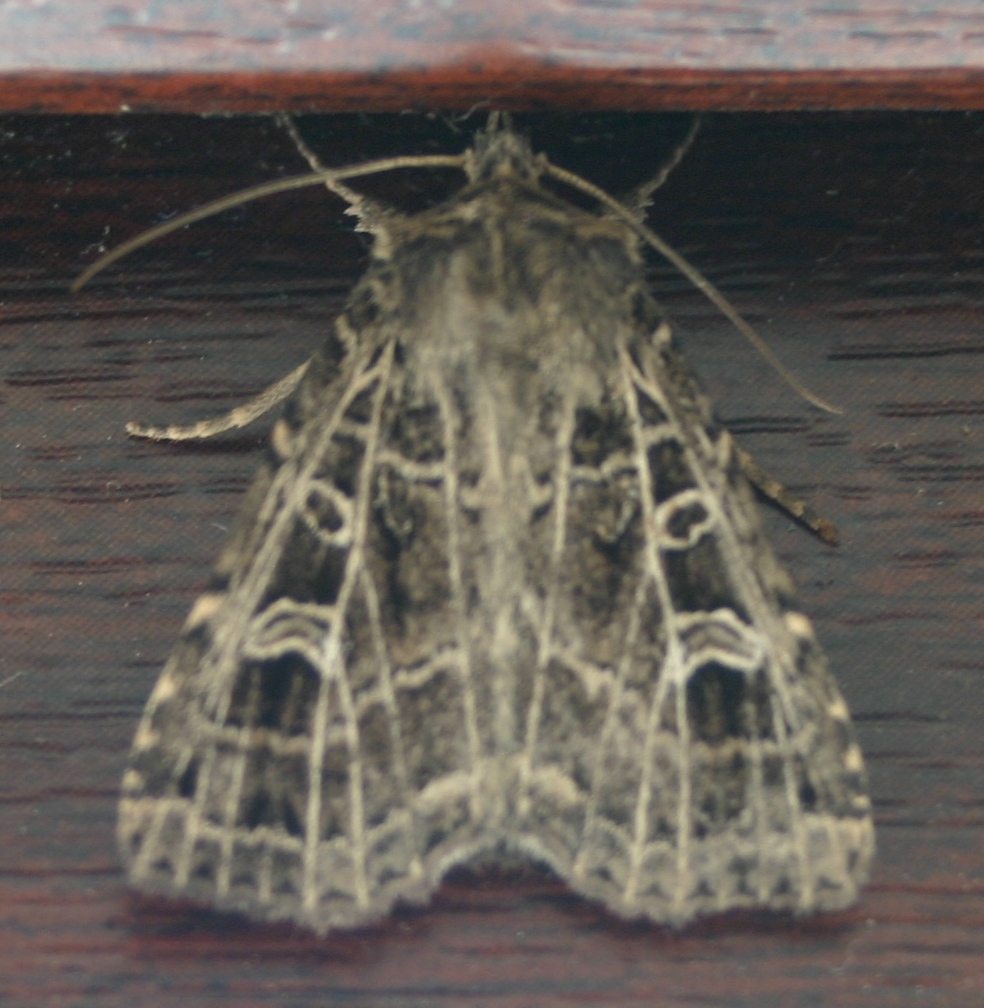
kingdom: Animalia
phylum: Arthropoda
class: Insecta
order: Lepidoptera
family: Noctuidae
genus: Naenia
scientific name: Naenia typica
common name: Gothic
